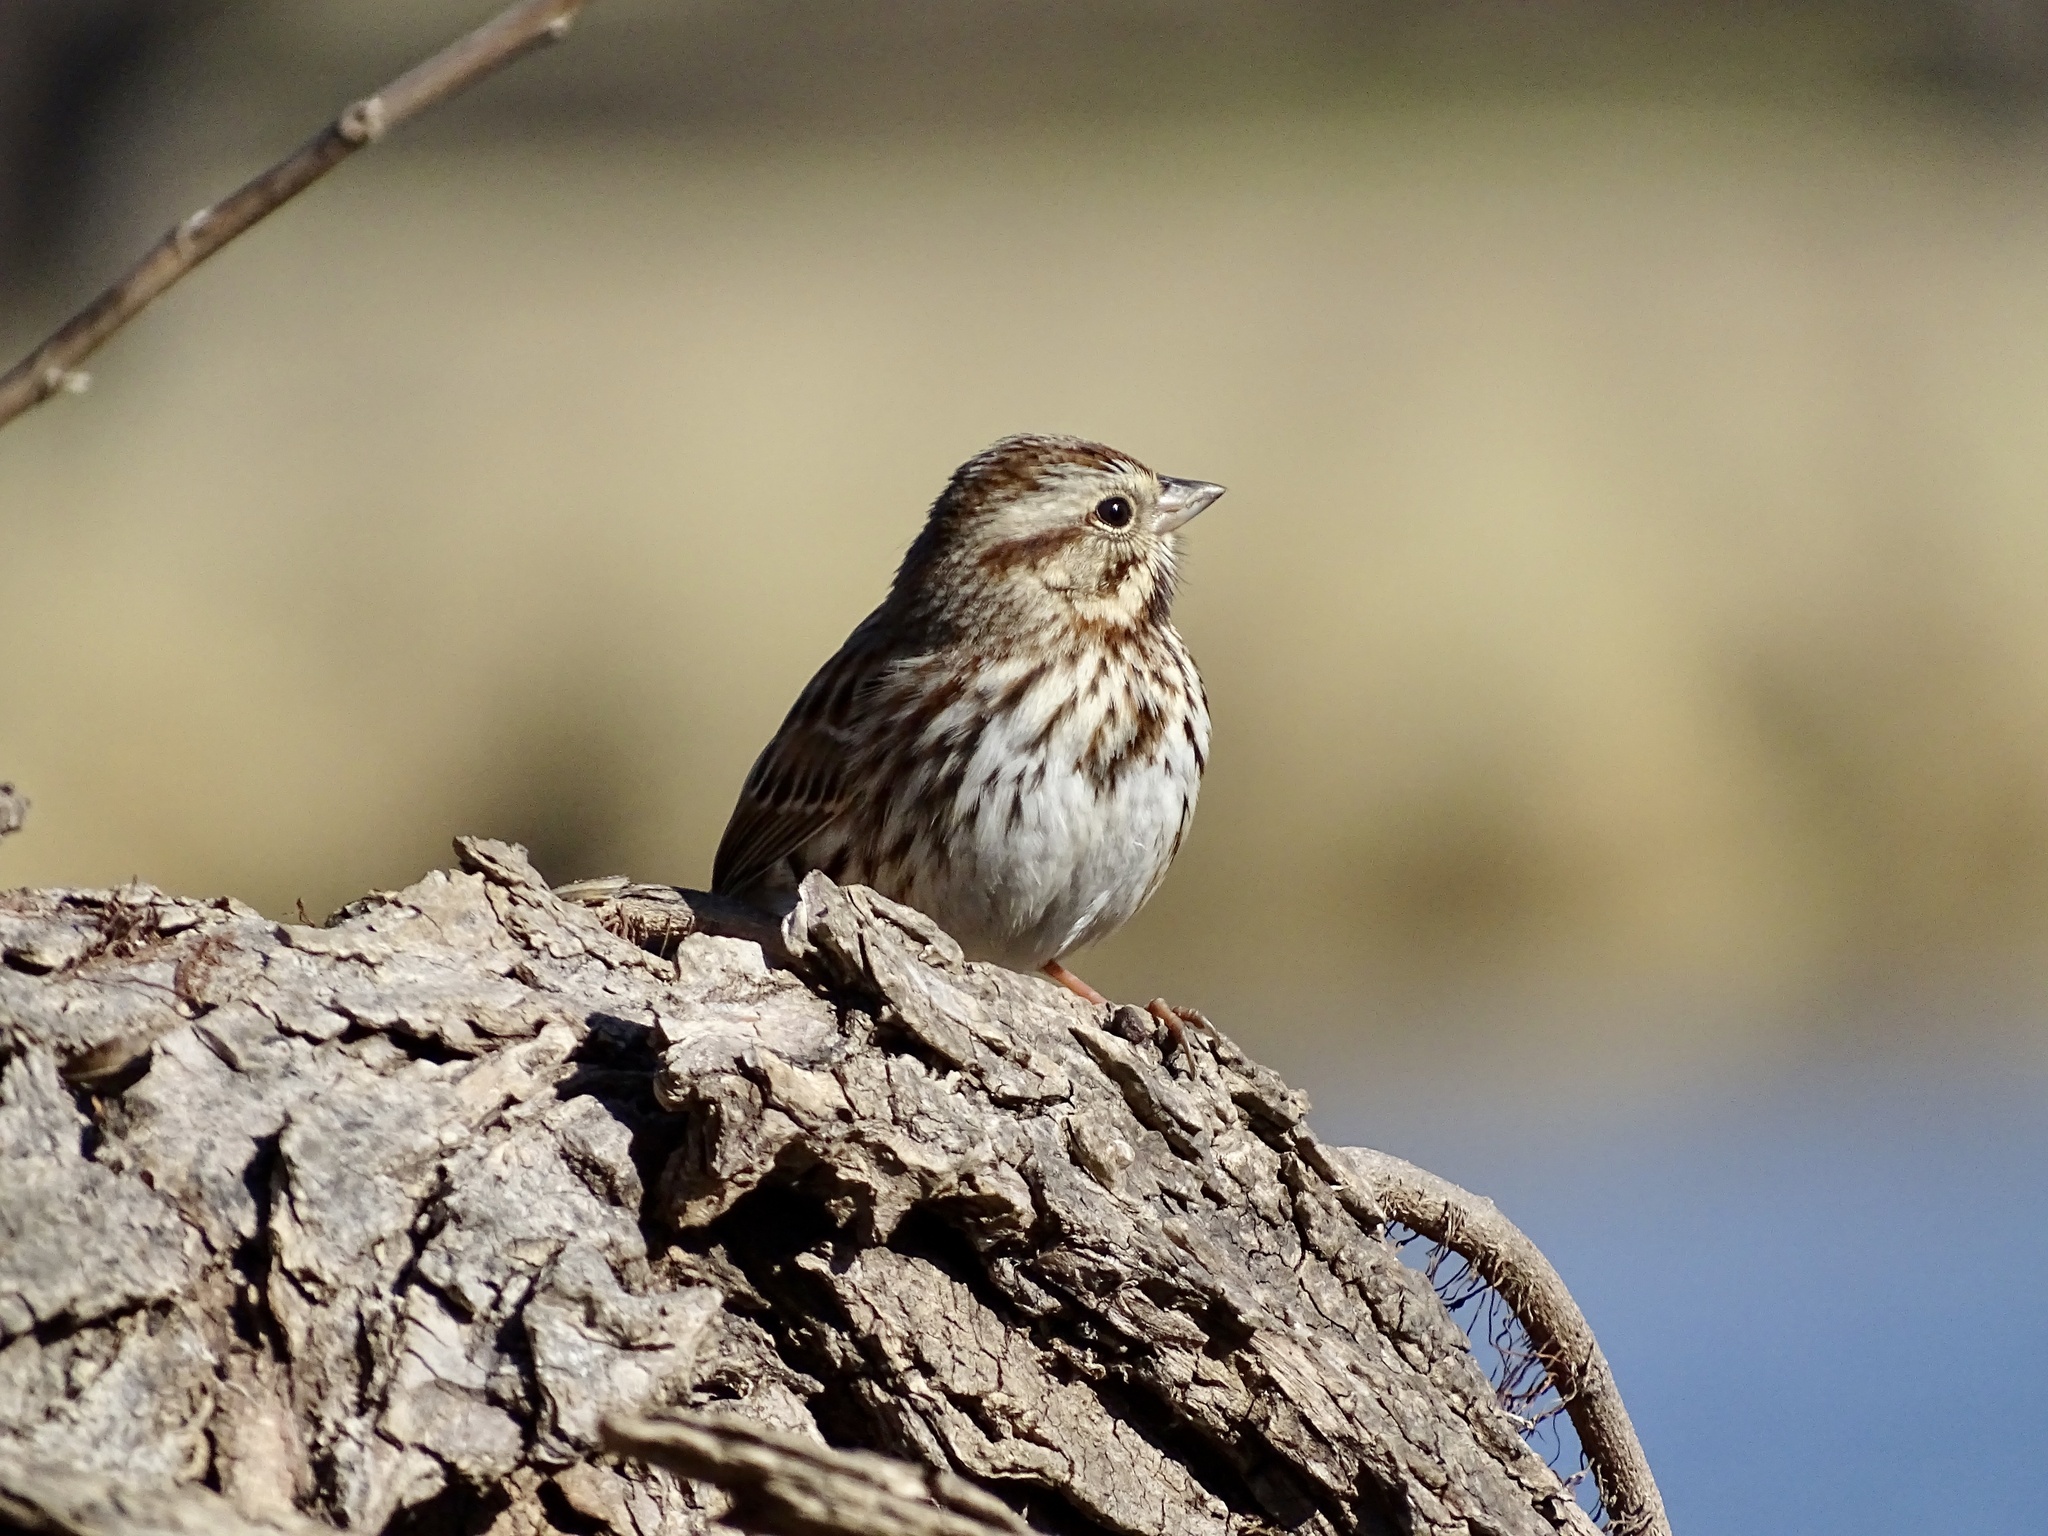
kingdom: Animalia
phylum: Chordata
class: Aves
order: Passeriformes
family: Passerellidae
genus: Melospiza
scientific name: Melospiza melodia
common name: Song sparrow
